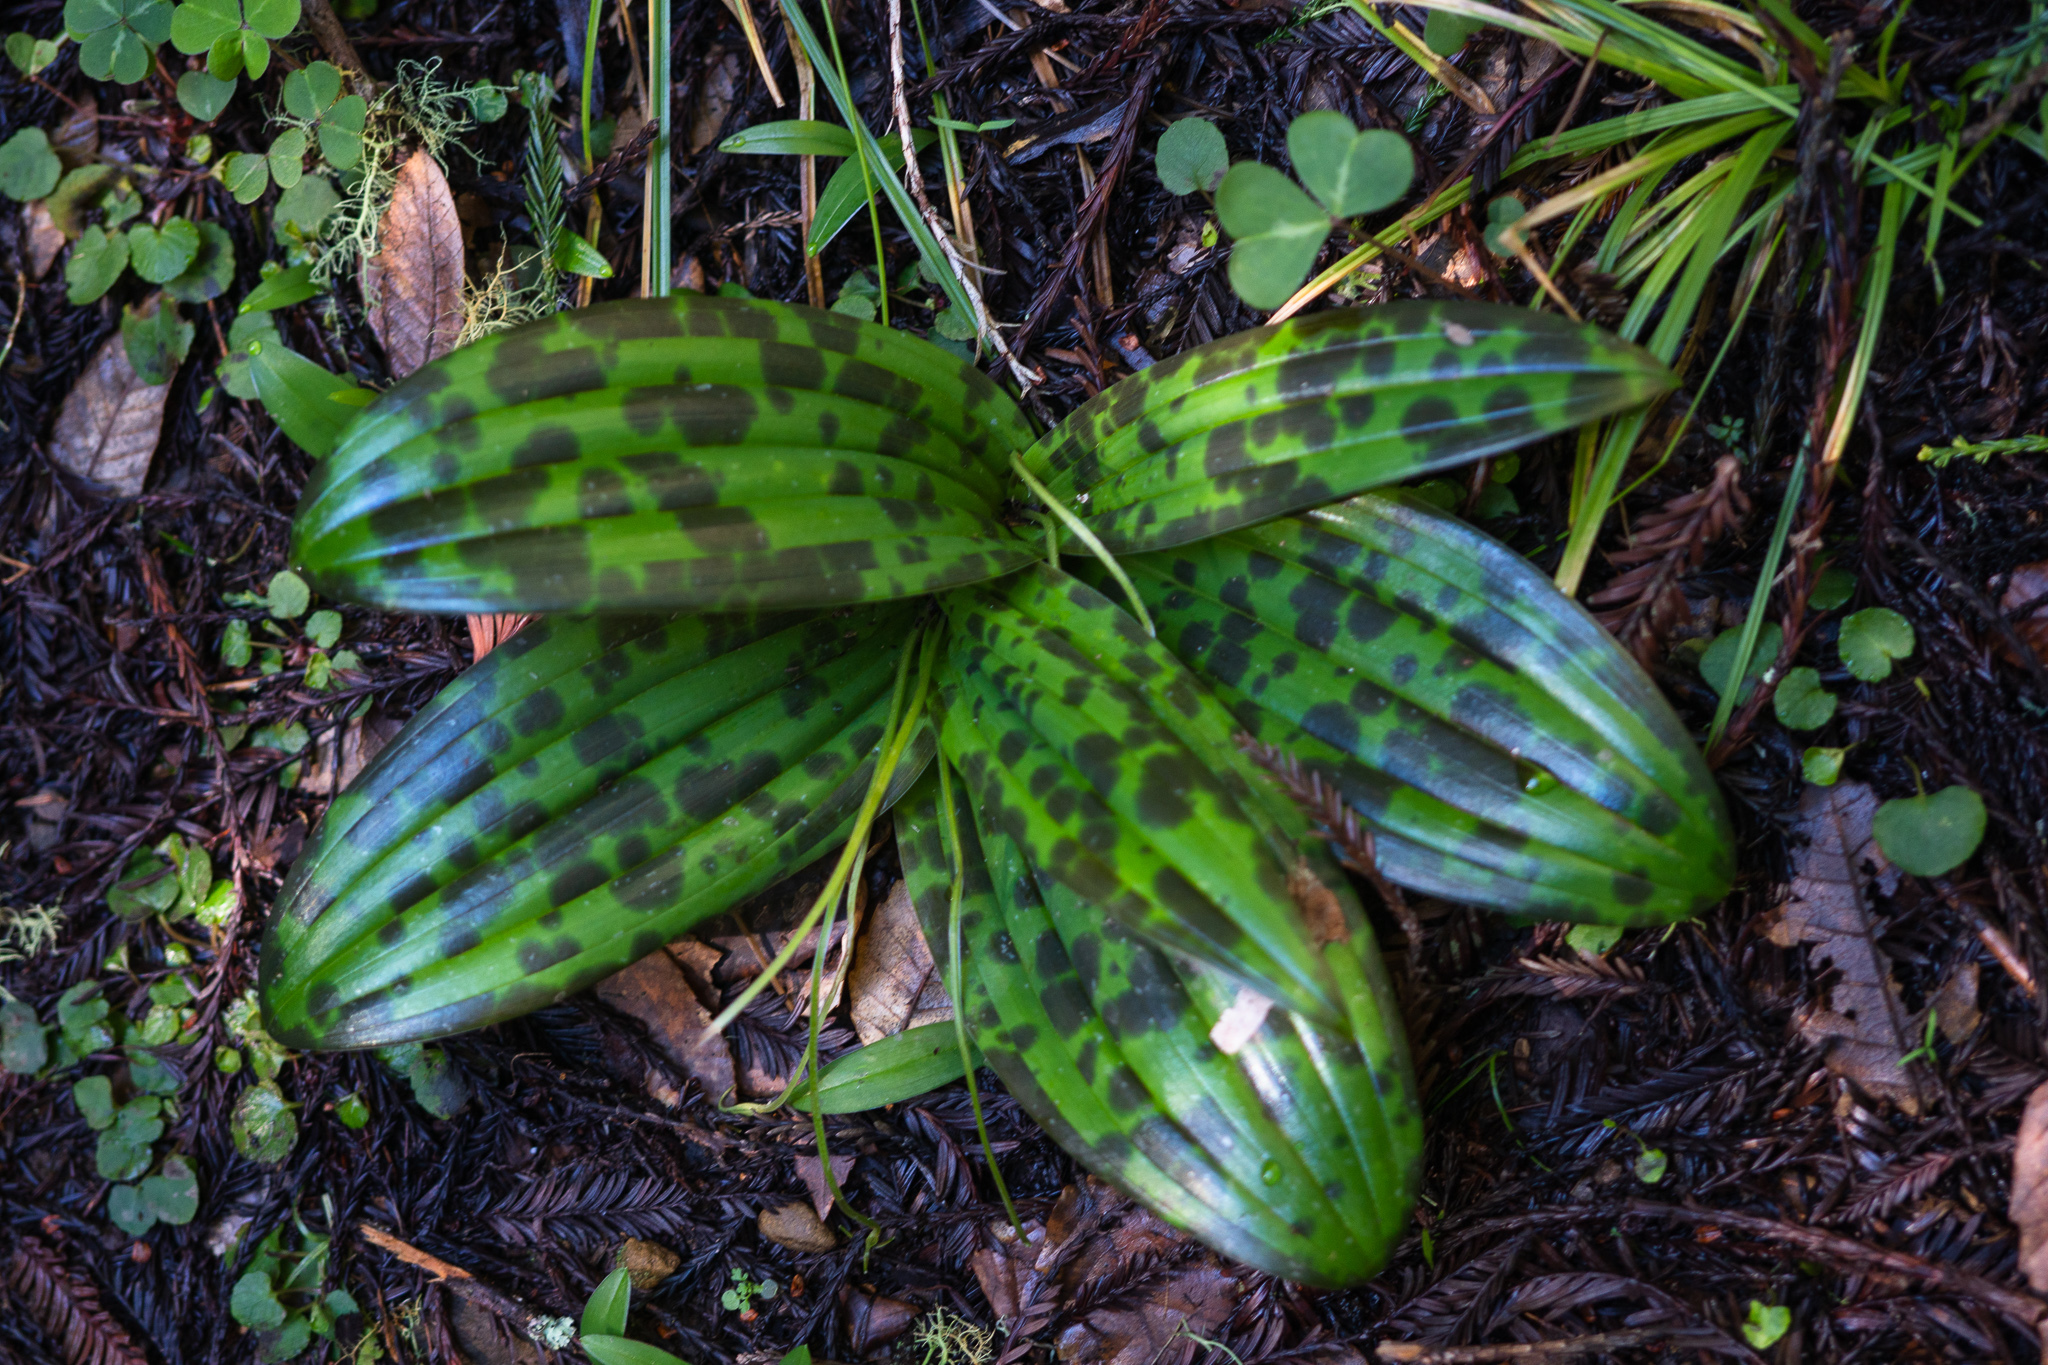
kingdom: Plantae
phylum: Tracheophyta
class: Liliopsida
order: Liliales
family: Liliaceae
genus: Scoliopus
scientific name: Scoliopus bigelovii
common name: Foetid adder's-tongue
